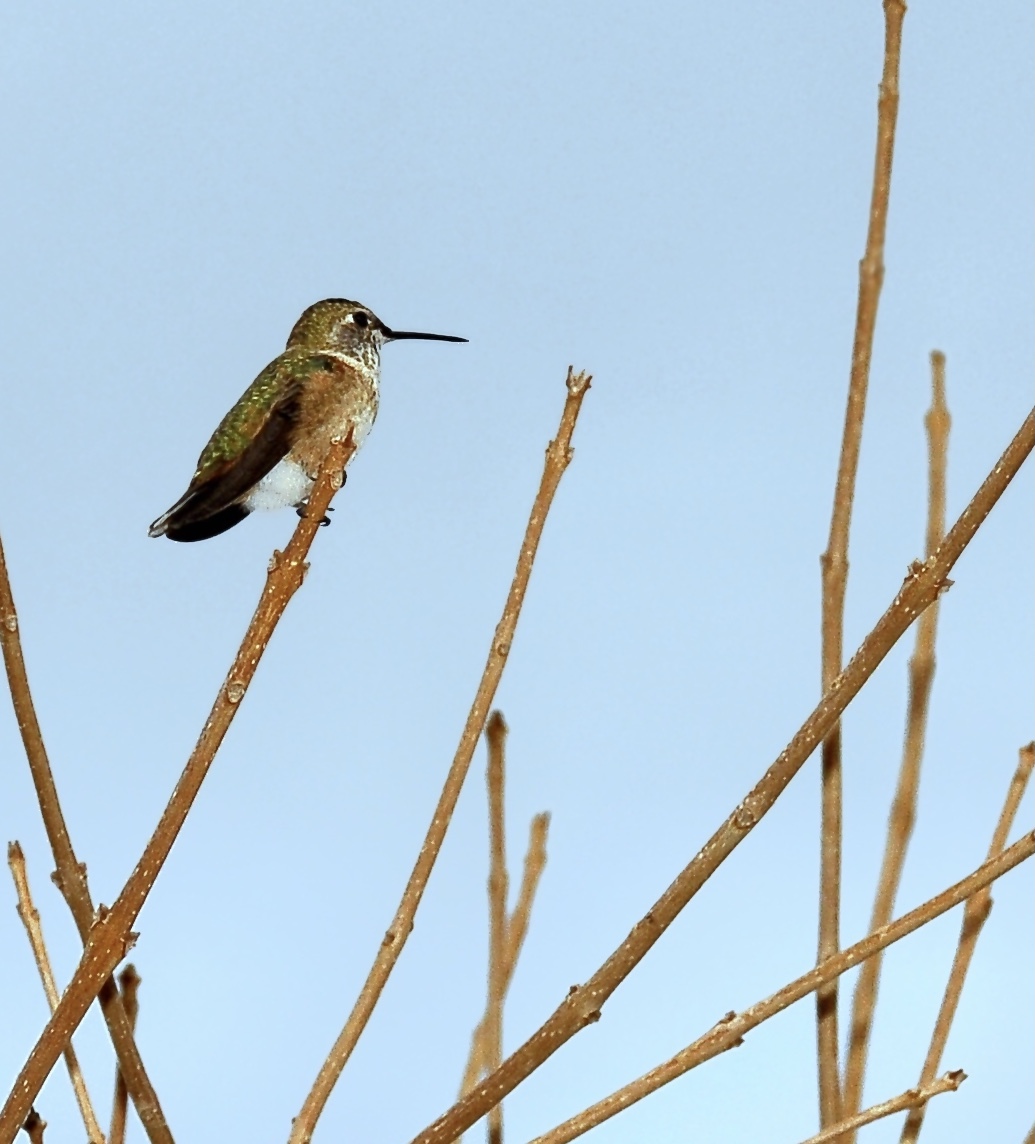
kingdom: Animalia
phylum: Chordata
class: Aves
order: Apodiformes
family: Trochilidae
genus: Selasphorus
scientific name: Selasphorus rufus
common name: Rufous hummingbird
